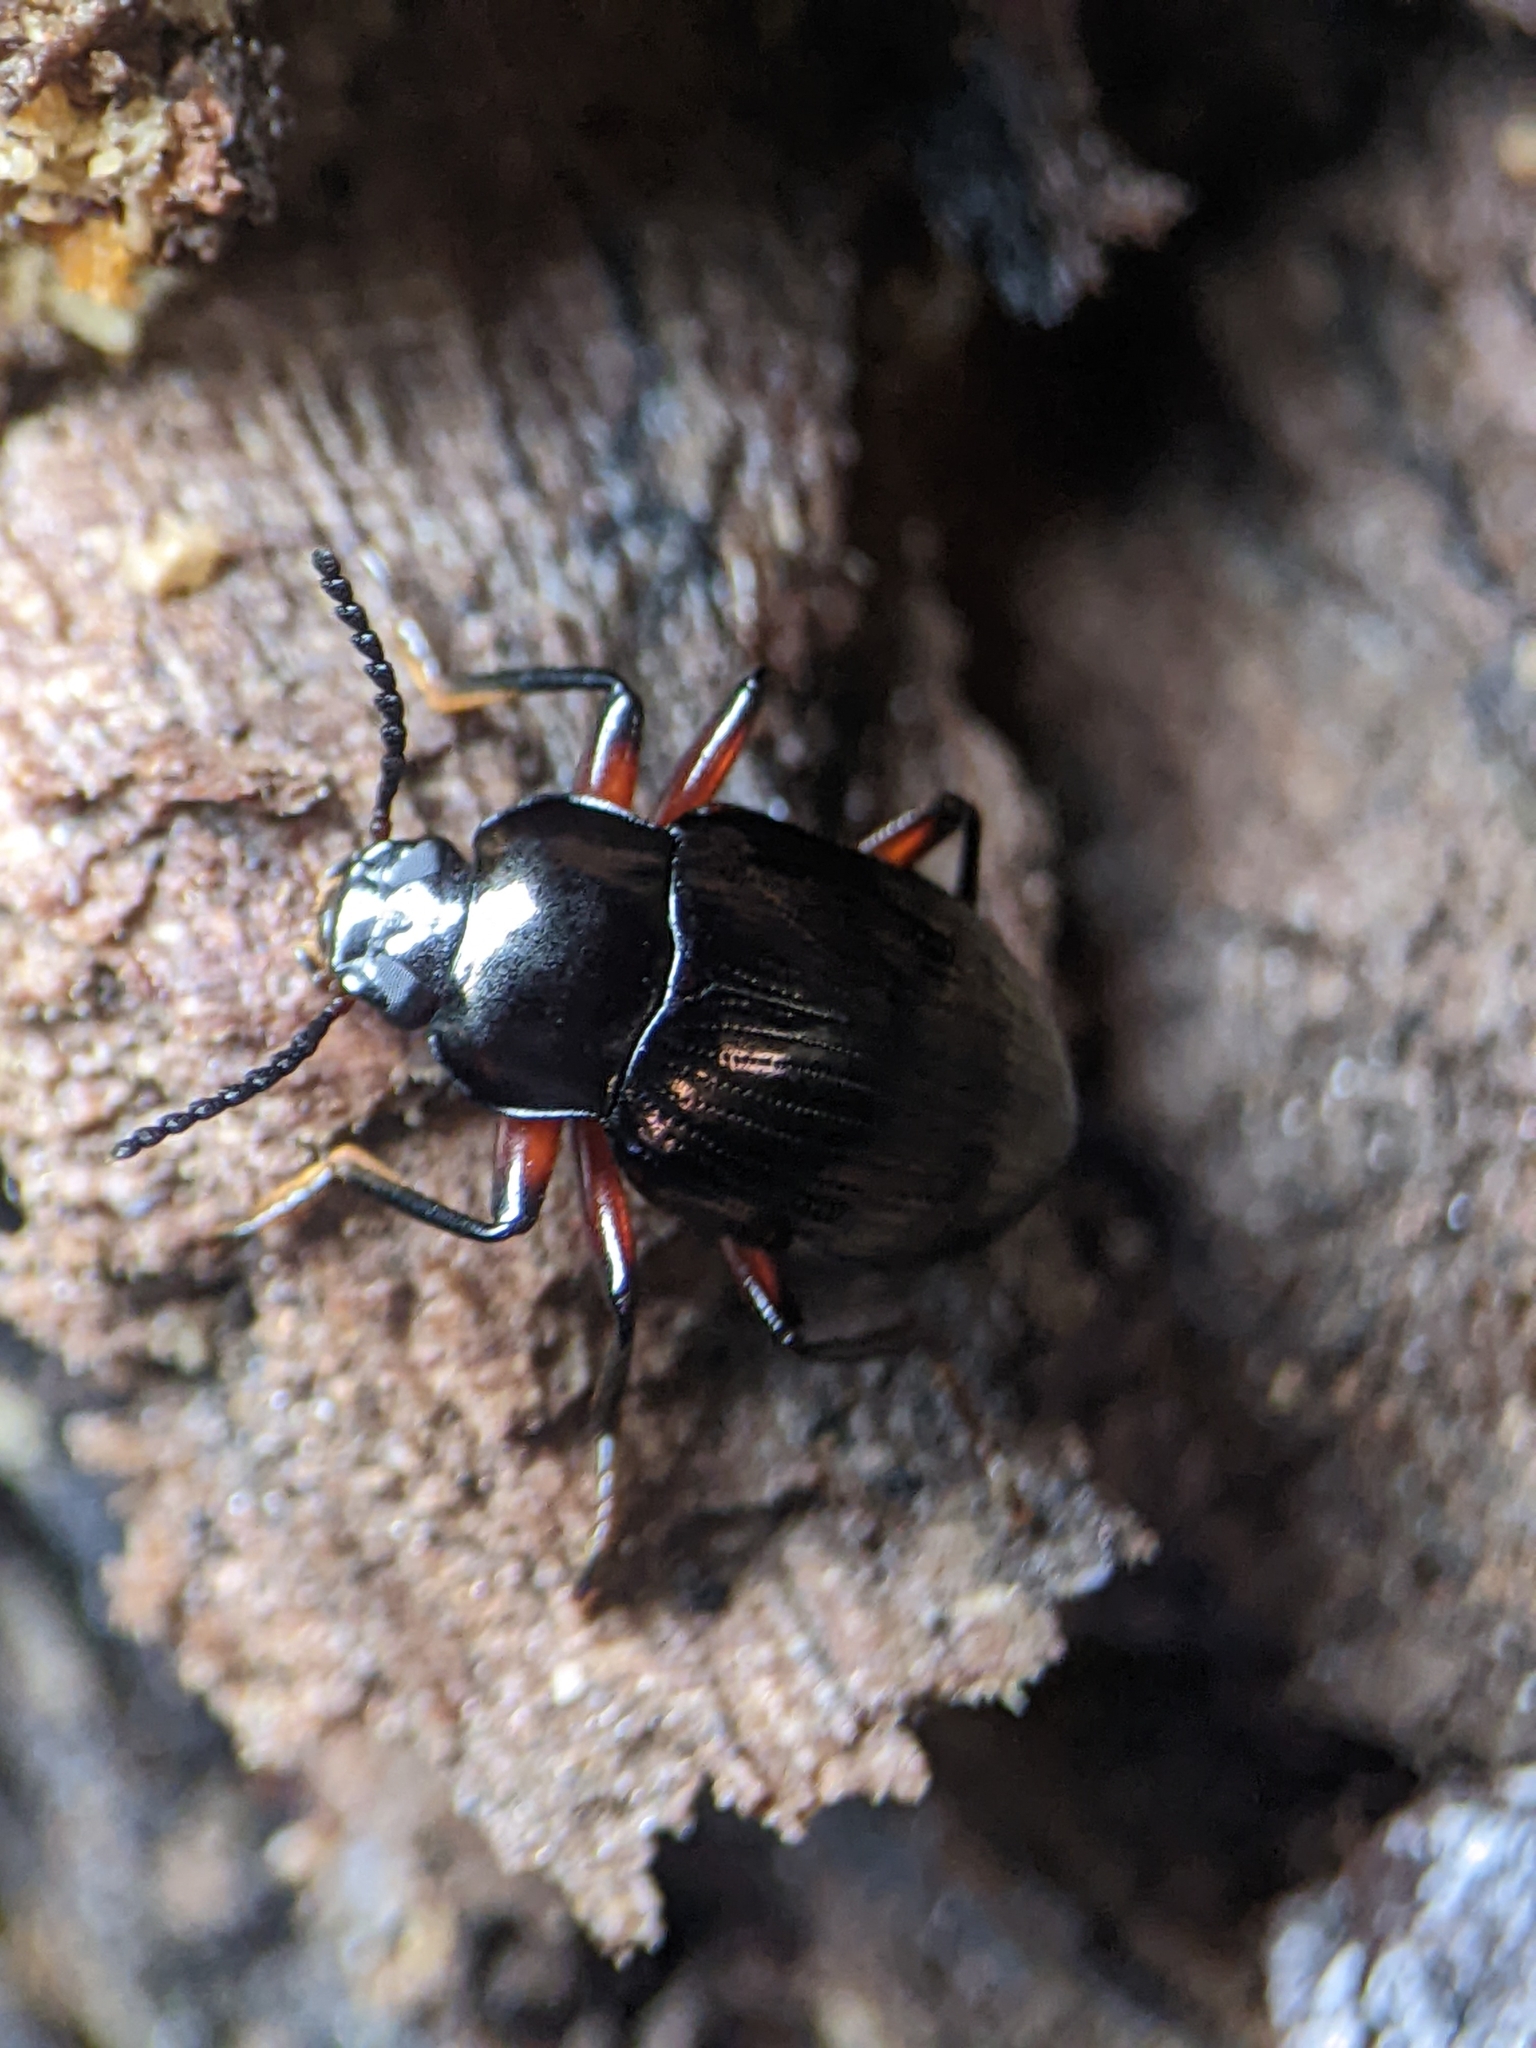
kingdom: Animalia
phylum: Arthropoda
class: Insecta
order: Coleoptera
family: Tenebrionidae
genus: Ceropria
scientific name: Ceropria
